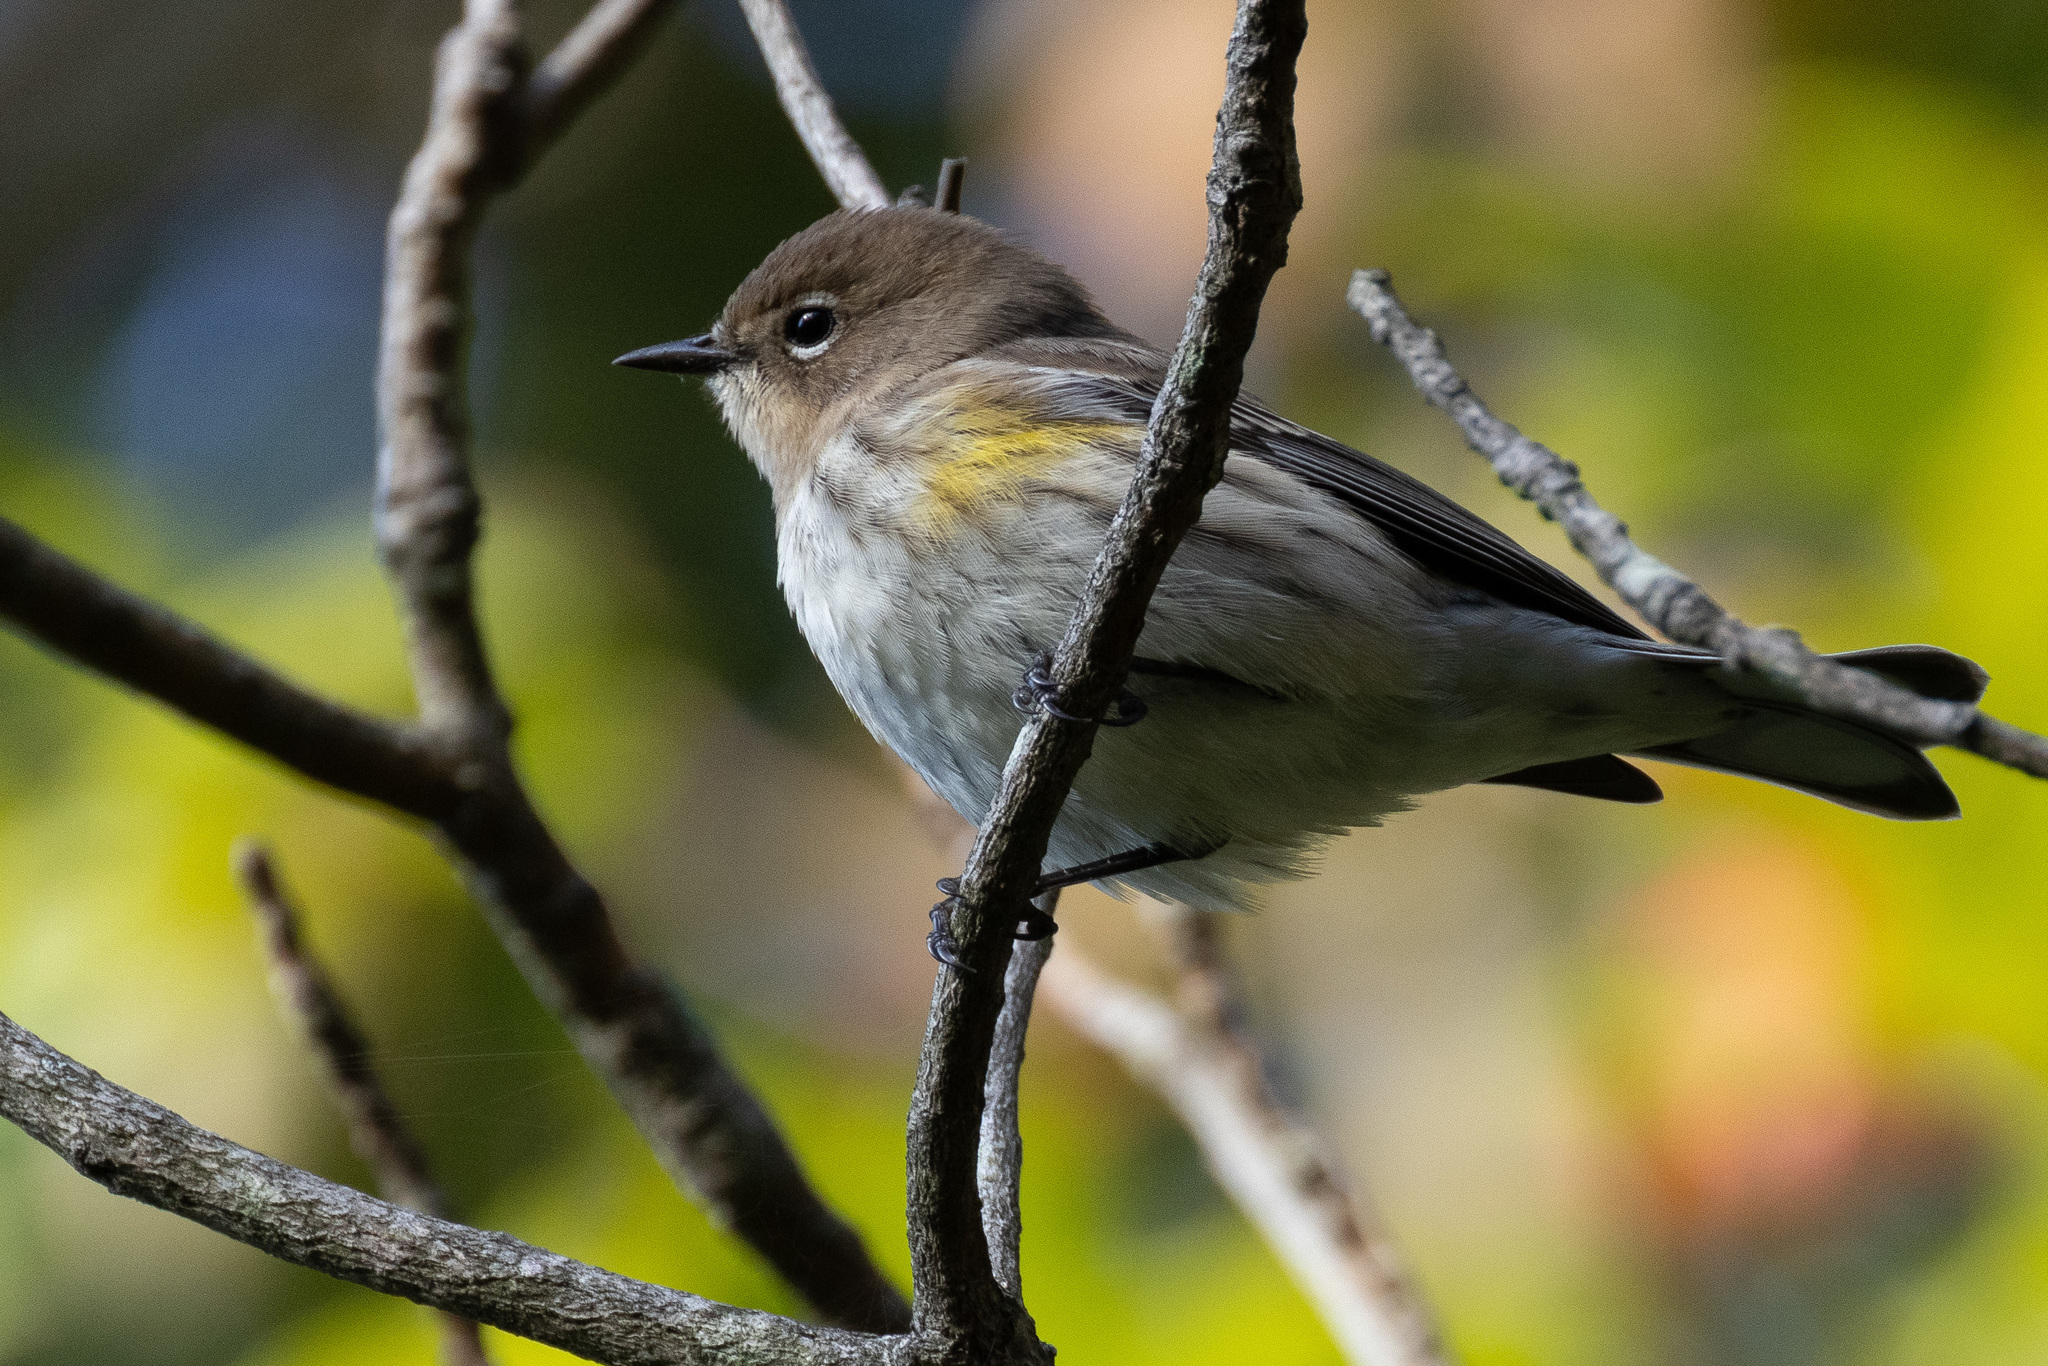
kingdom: Animalia
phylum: Chordata
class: Aves
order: Passeriformes
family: Parulidae
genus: Setophaga
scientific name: Setophaga coronata
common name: Myrtle warbler
